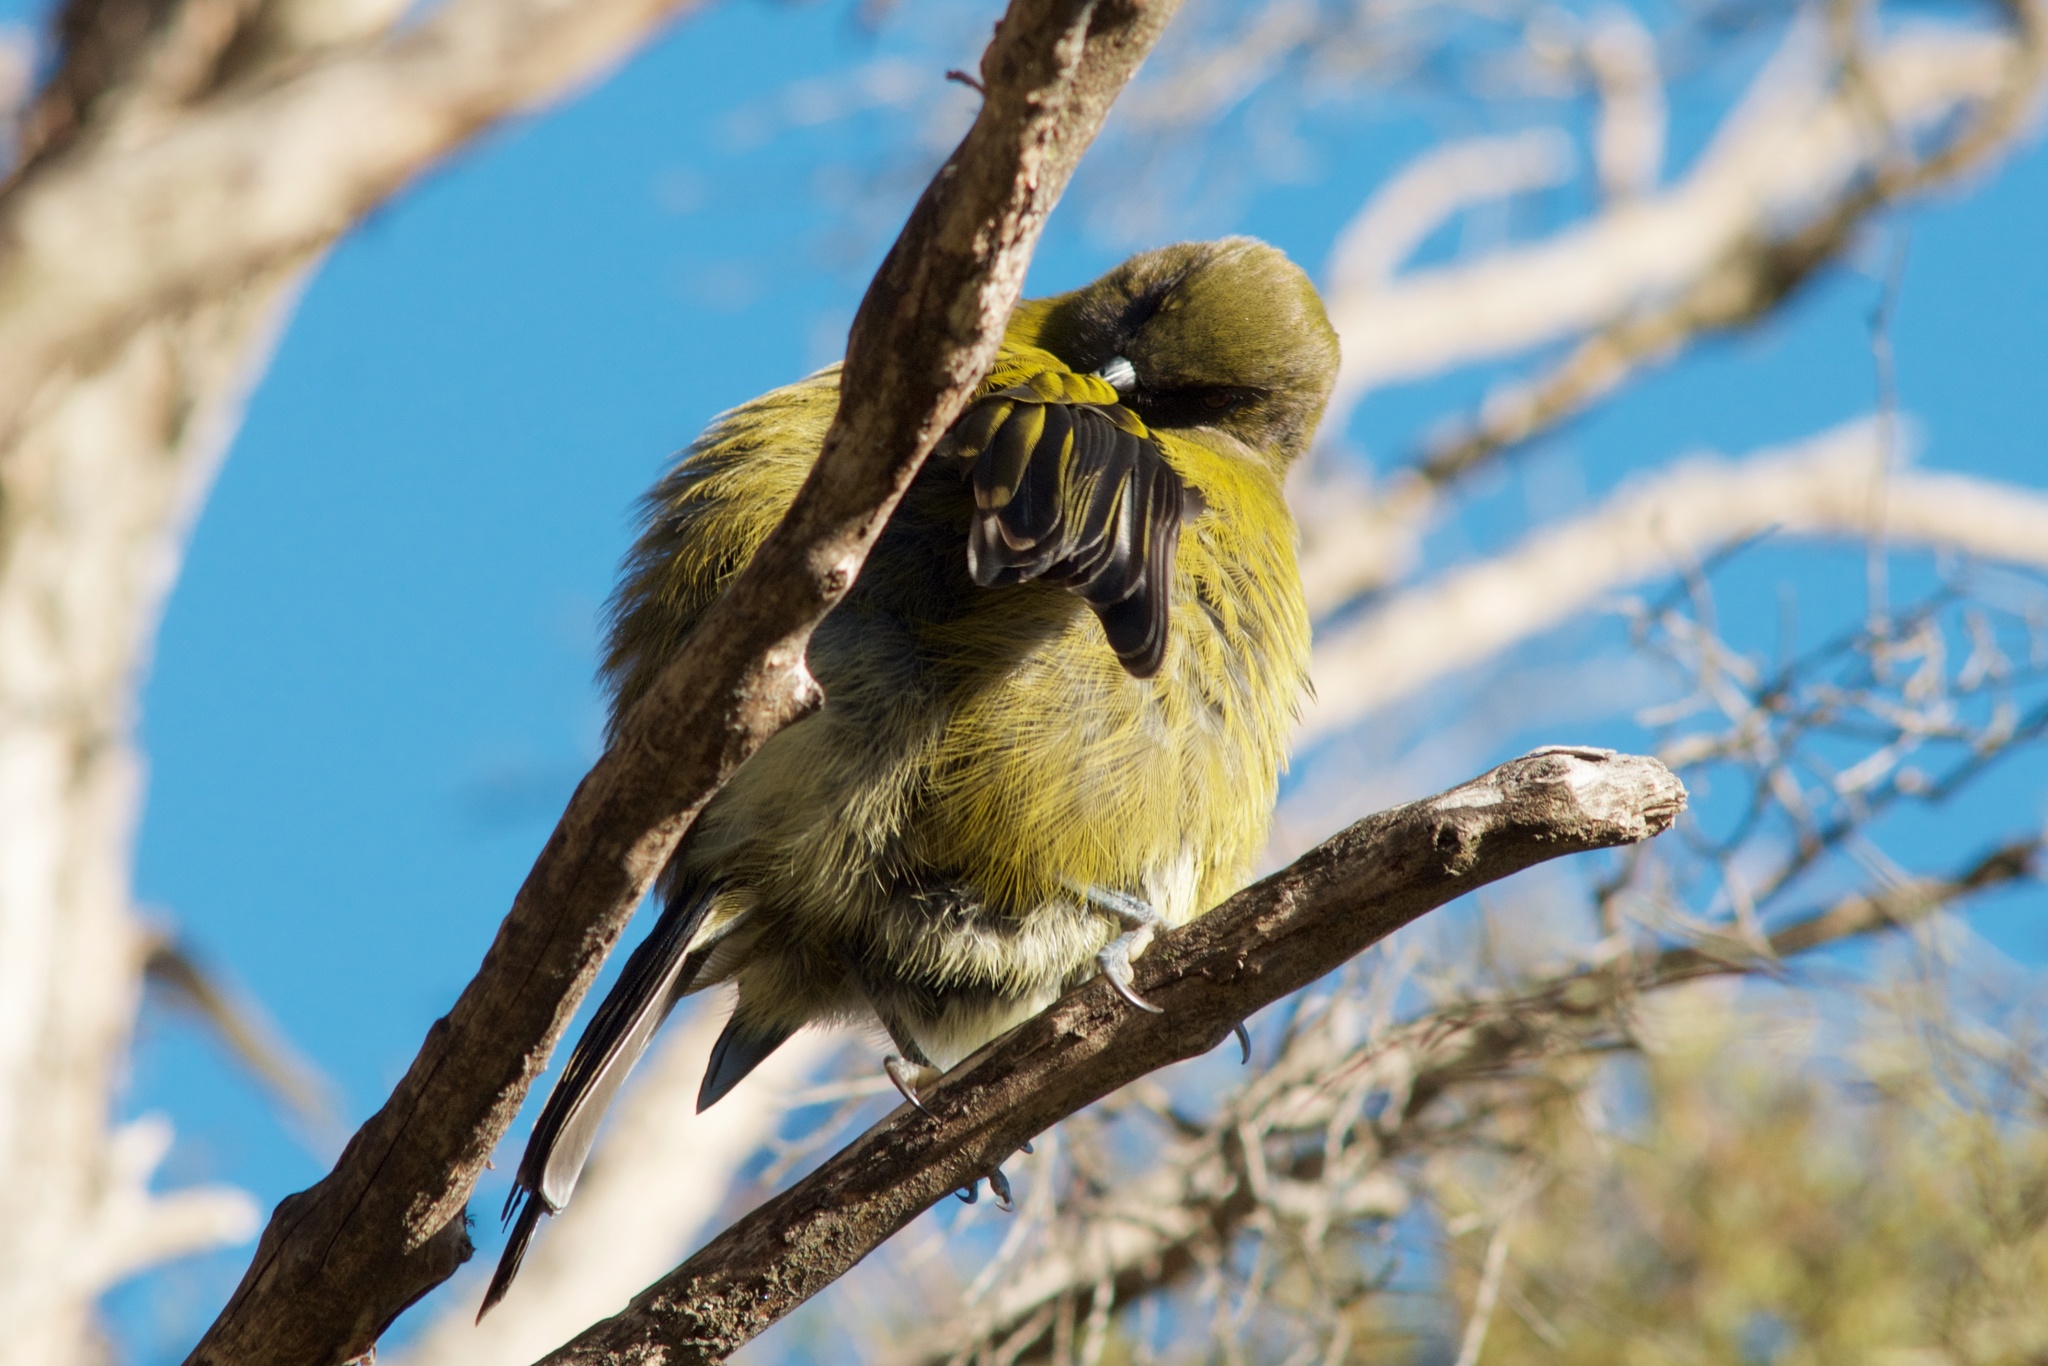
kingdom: Animalia
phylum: Chordata
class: Aves
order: Passeriformes
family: Meliphagidae
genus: Anthornis
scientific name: Anthornis melanura
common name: New zealand bellbird
